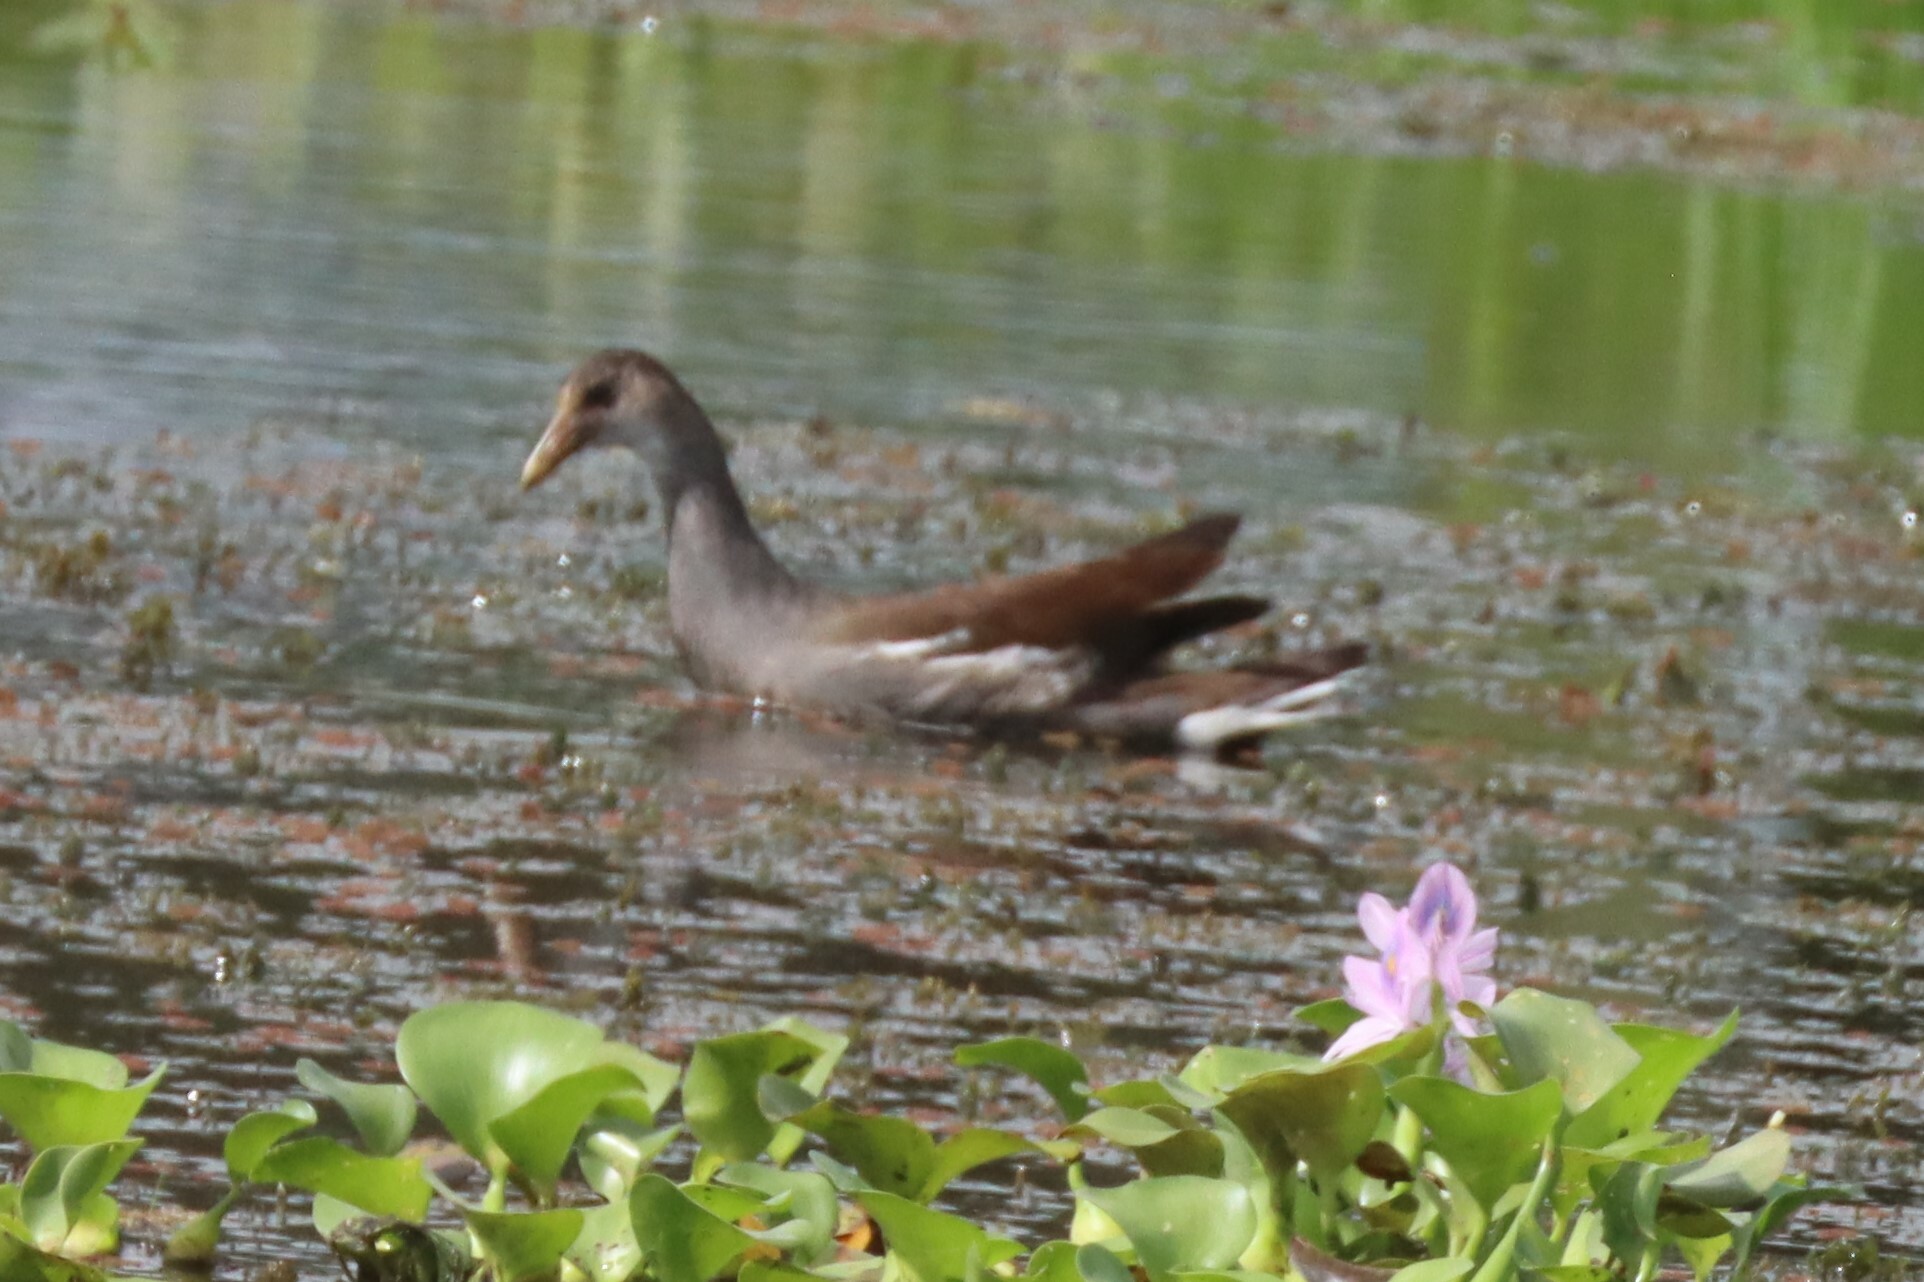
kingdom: Animalia
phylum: Chordata
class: Aves
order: Gruiformes
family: Rallidae
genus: Gallinula
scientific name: Gallinula chloropus
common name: Common moorhen
